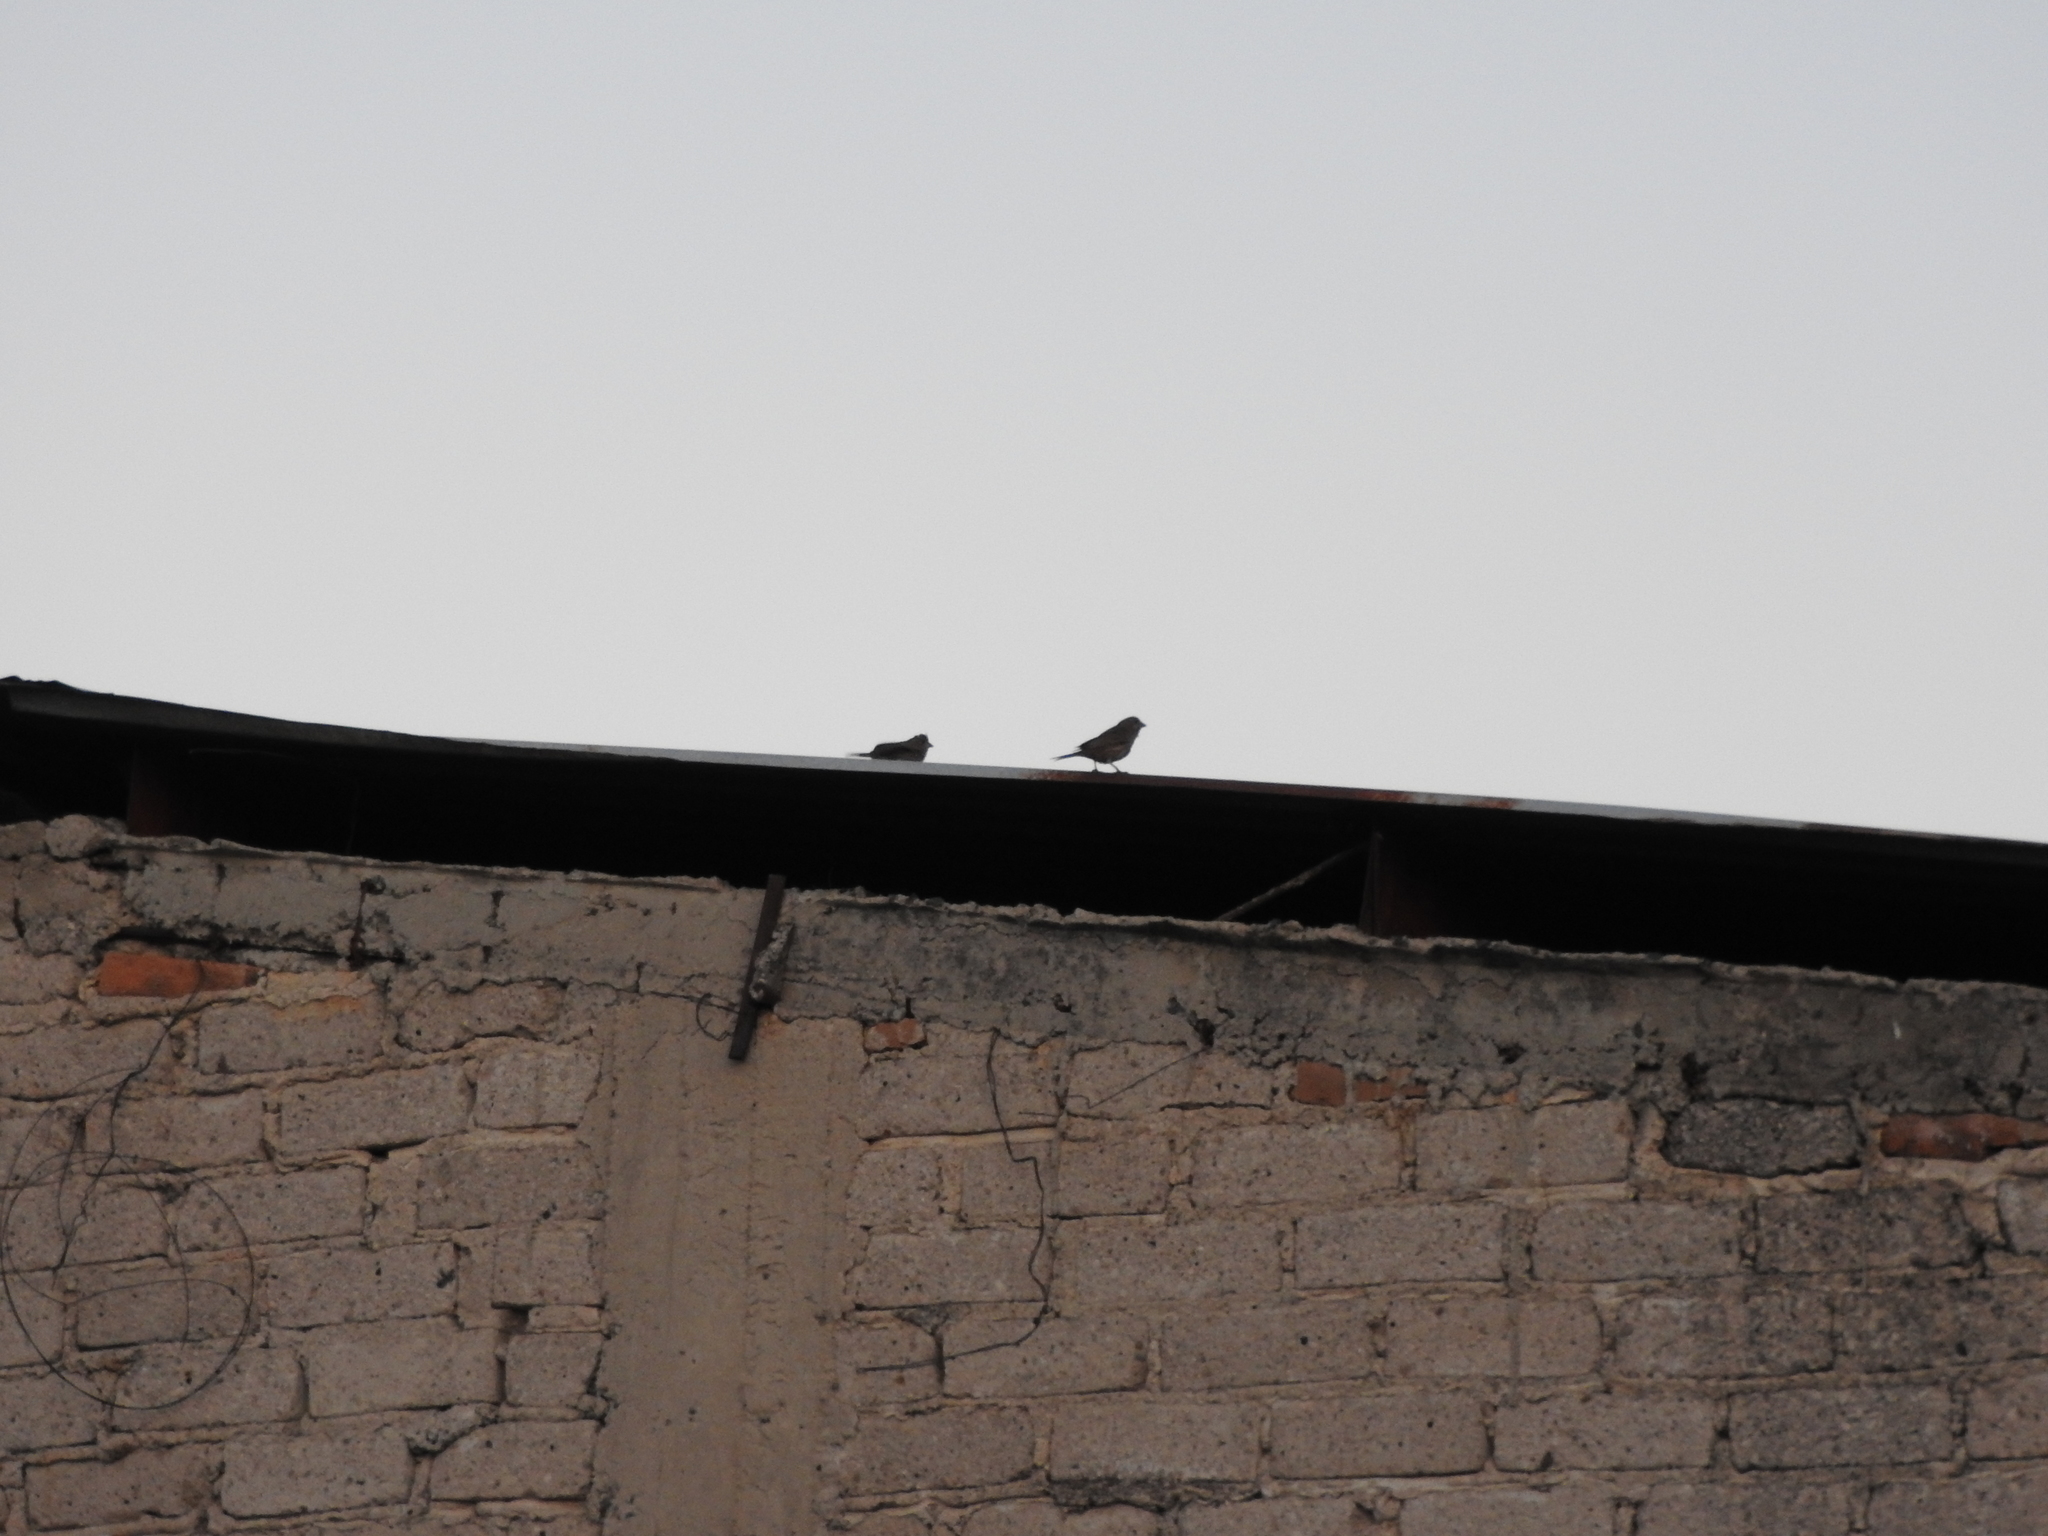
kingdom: Animalia
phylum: Chordata
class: Aves
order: Passeriformes
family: Fringillidae
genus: Haemorhous
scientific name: Haemorhous mexicanus
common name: House finch
